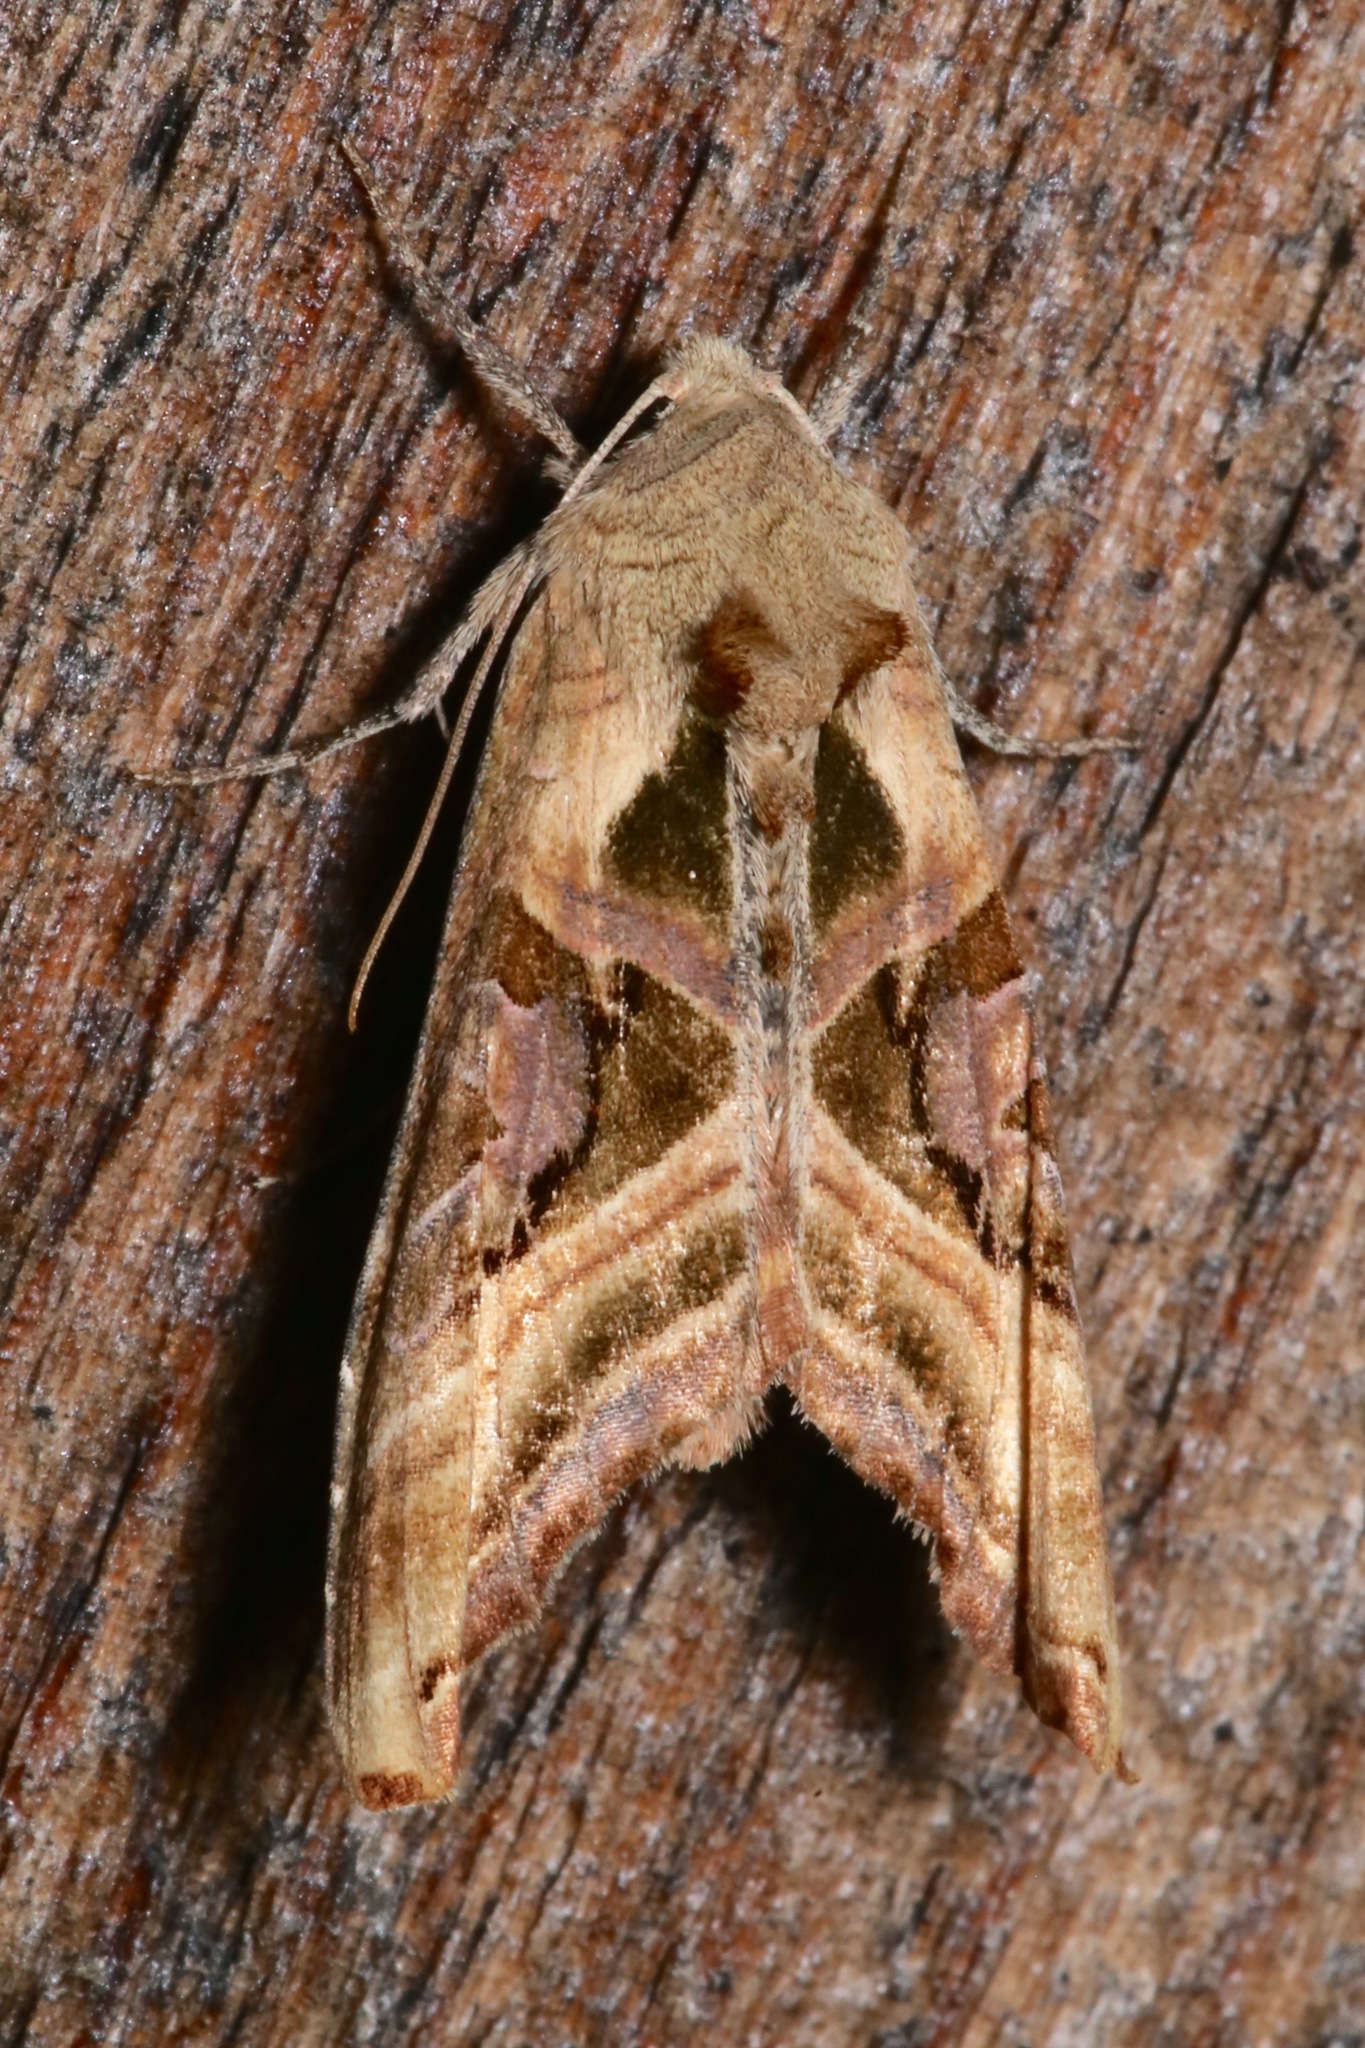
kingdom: Animalia
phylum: Arthropoda
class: Insecta
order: Lepidoptera
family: Noctuidae
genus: Phlogophora
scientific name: Phlogophora iris
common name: Olive angle shades
